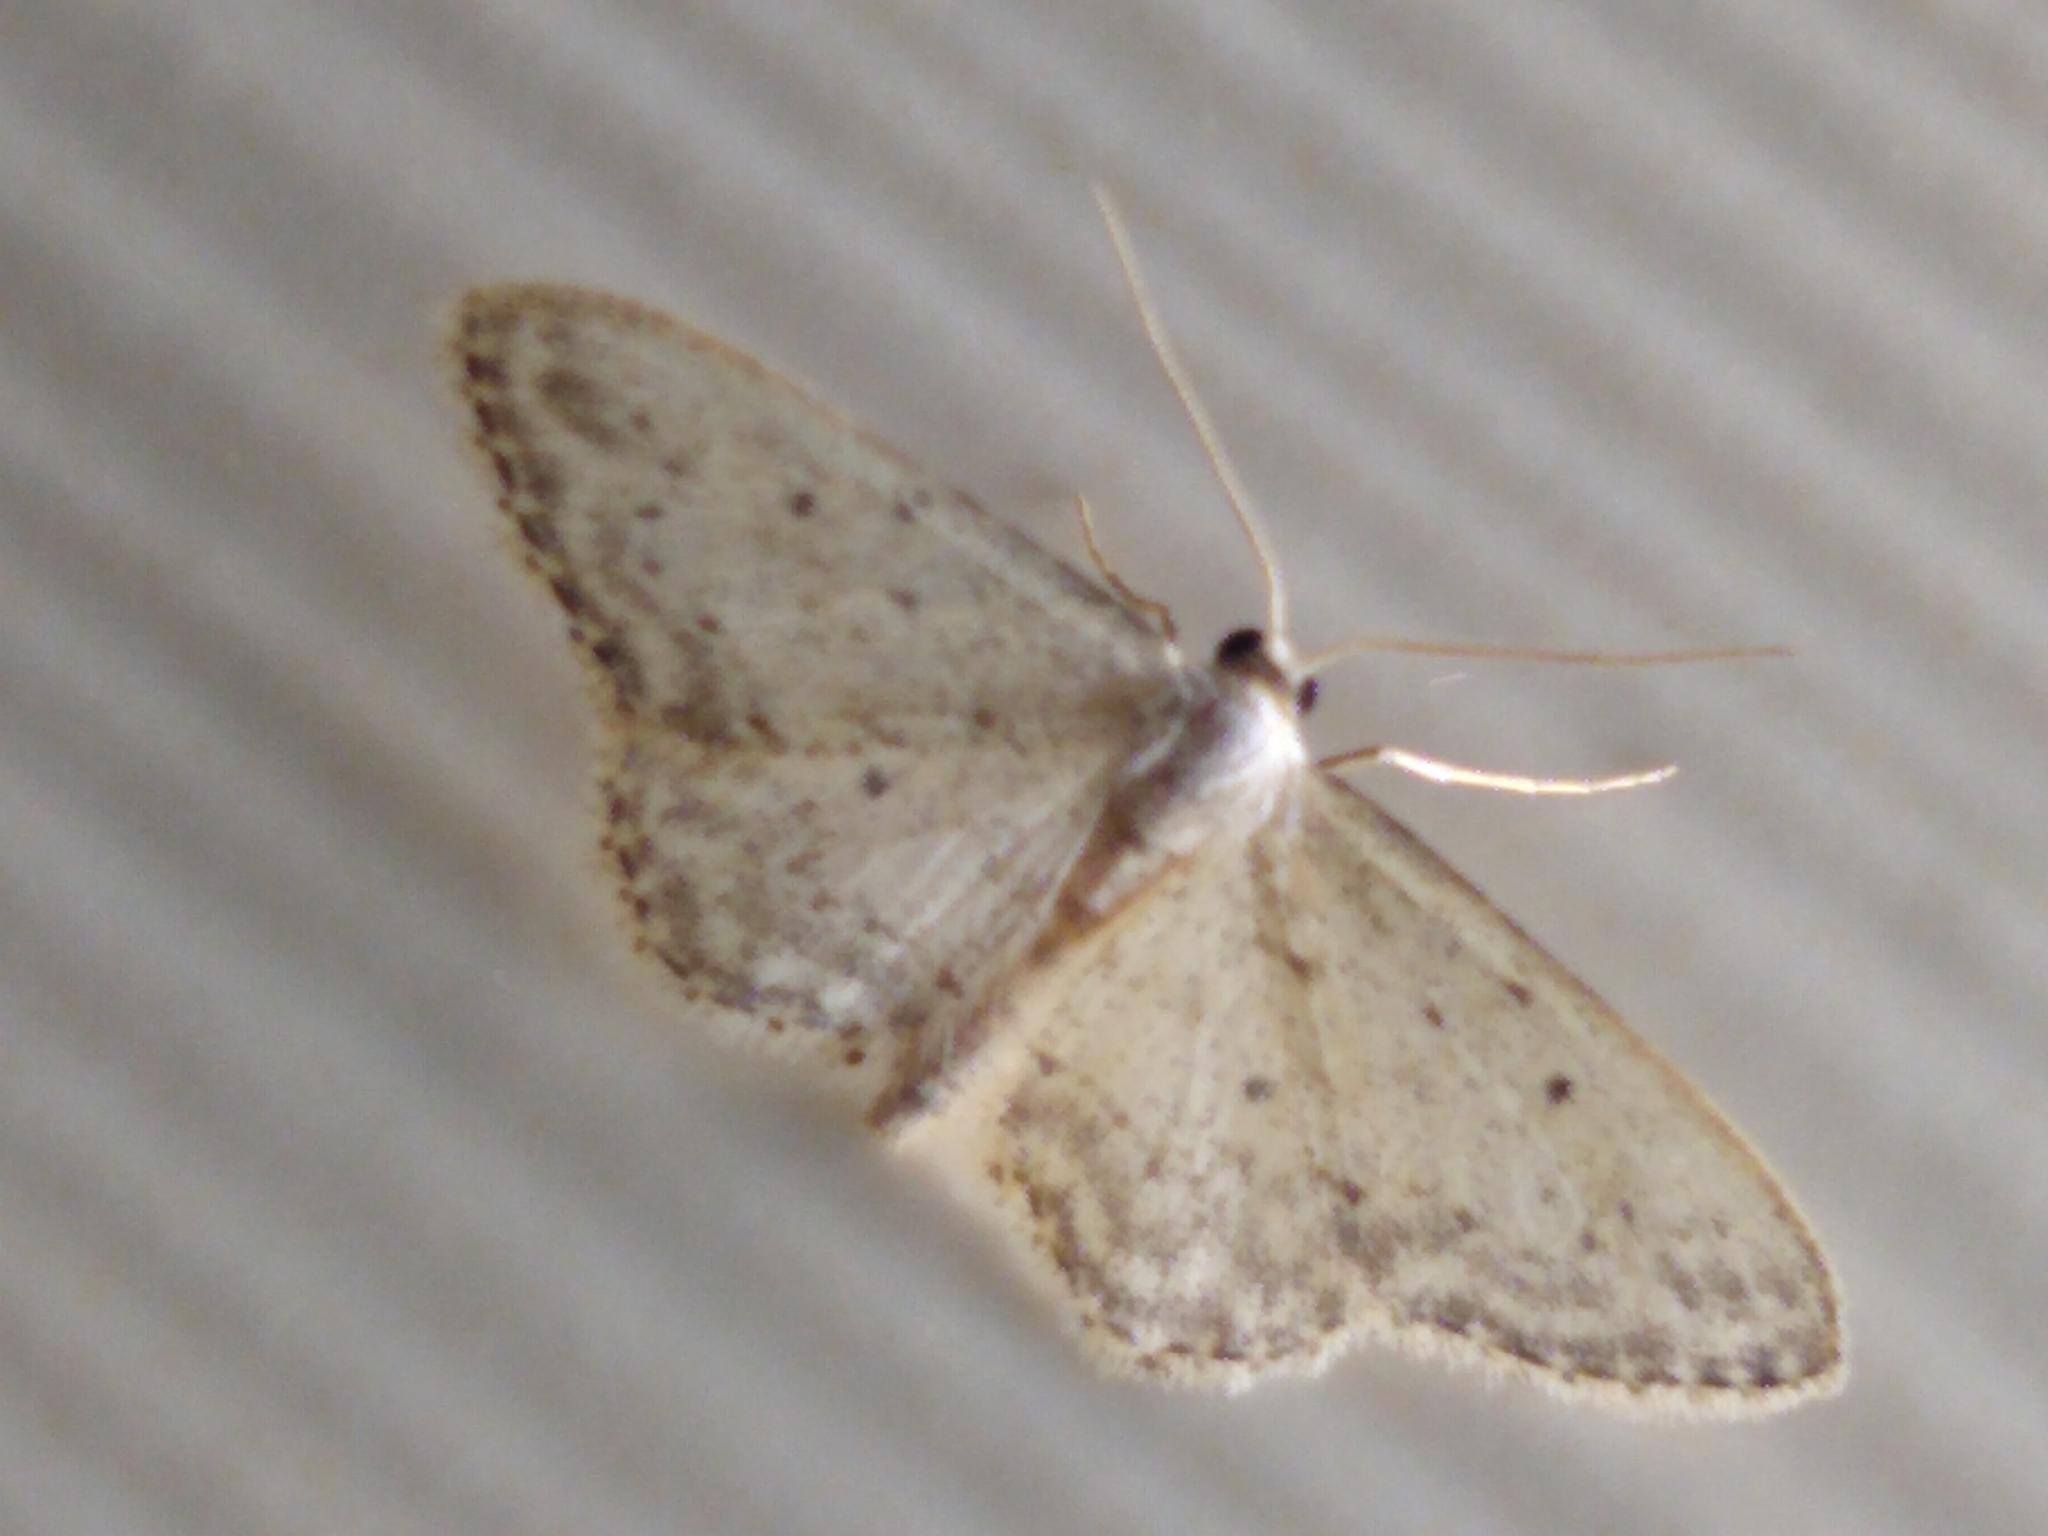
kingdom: Animalia
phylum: Arthropoda
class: Insecta
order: Lepidoptera
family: Geometridae
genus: Idaea
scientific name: Idaea seriata
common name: Small dusty wave
